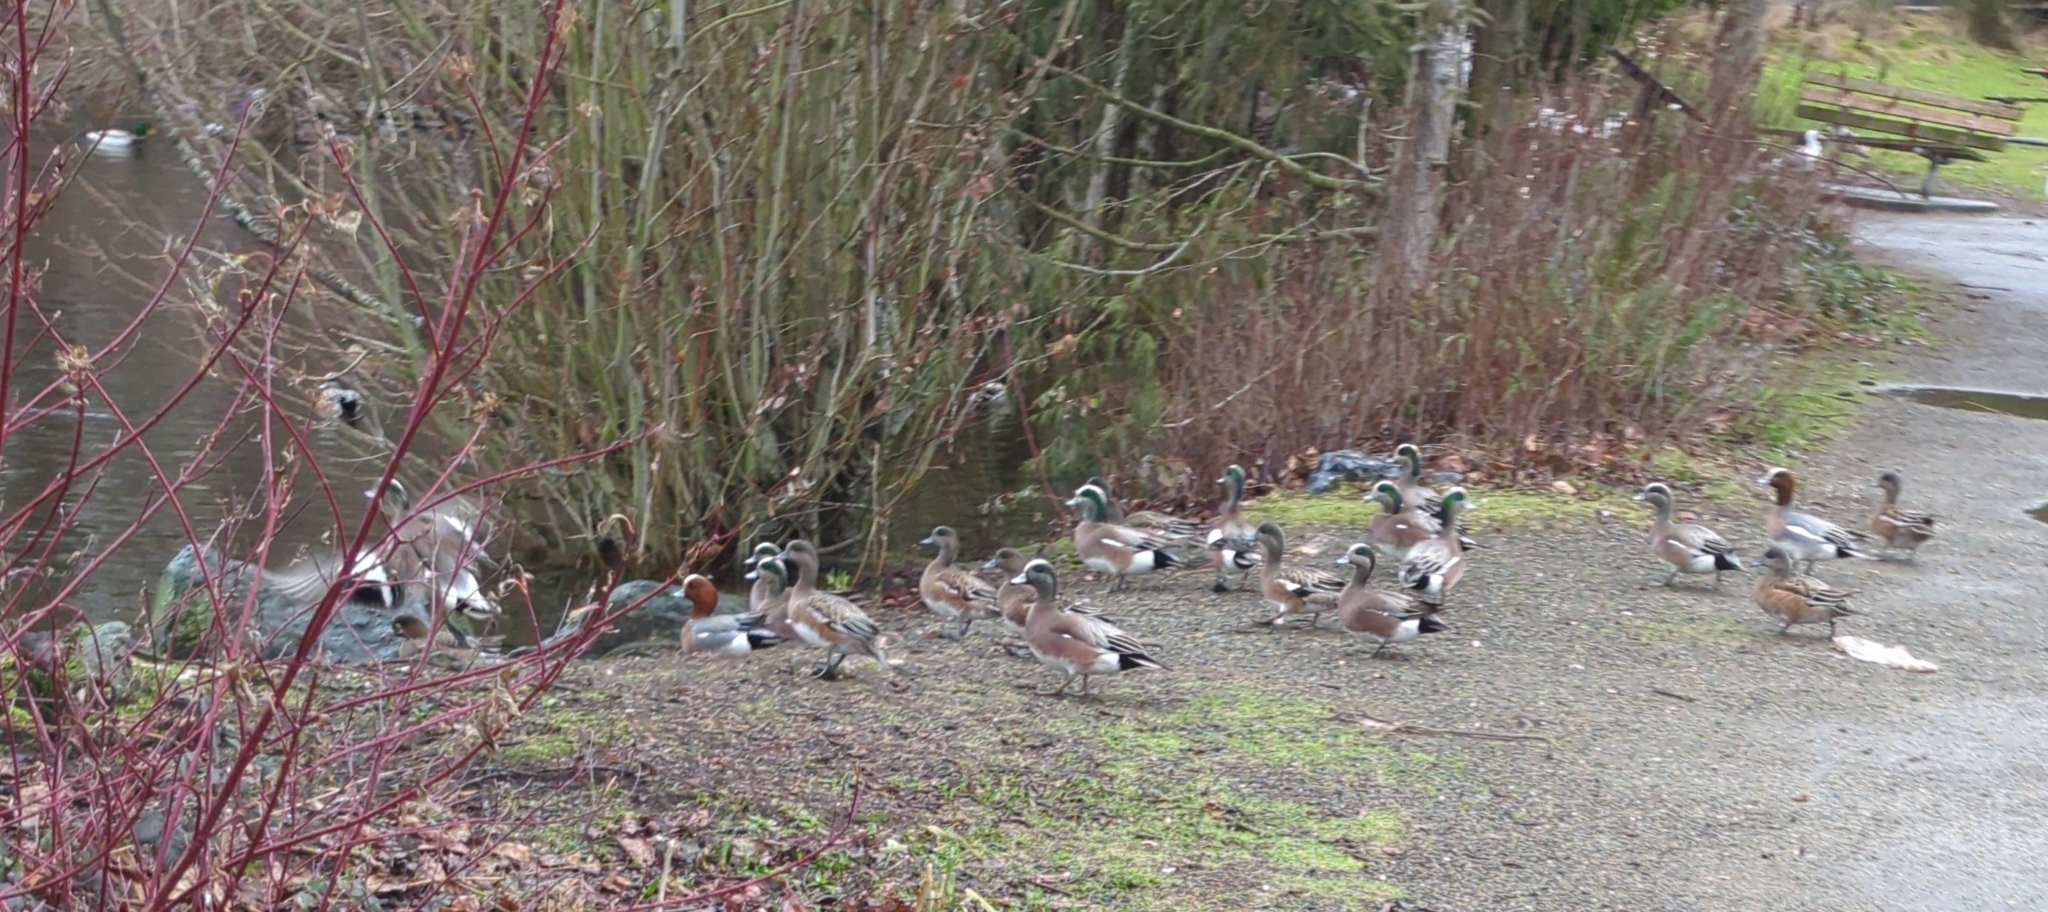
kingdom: Animalia
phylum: Chordata
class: Aves
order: Anseriformes
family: Anatidae
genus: Mareca
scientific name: Mareca americana
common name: American wigeon
